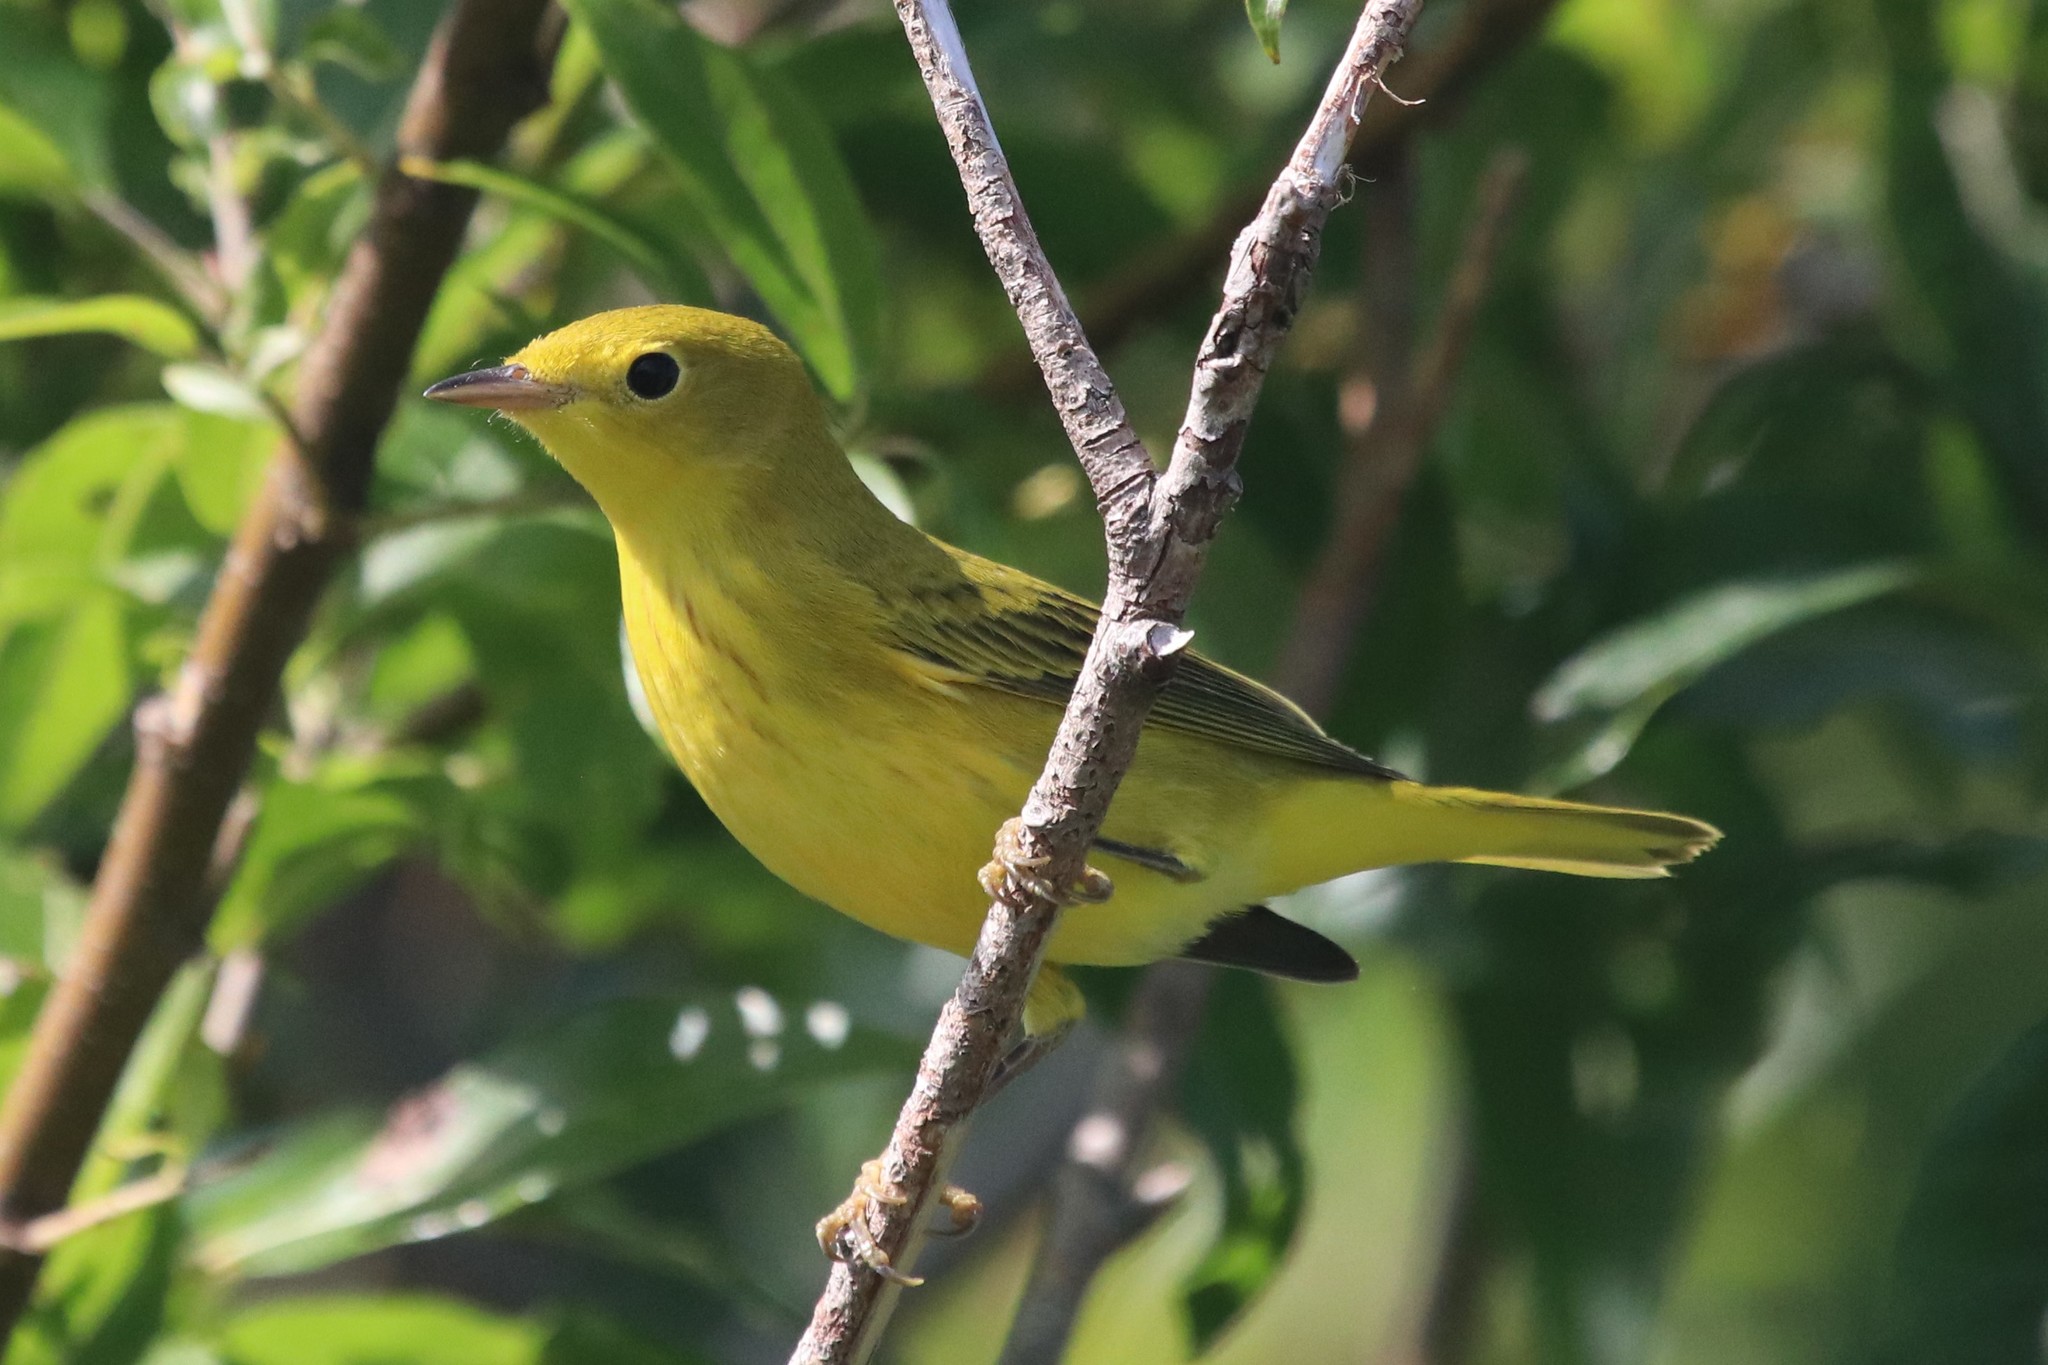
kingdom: Animalia
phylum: Chordata
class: Aves
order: Passeriformes
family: Parulidae
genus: Setophaga
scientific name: Setophaga petechia
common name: Yellow warbler
